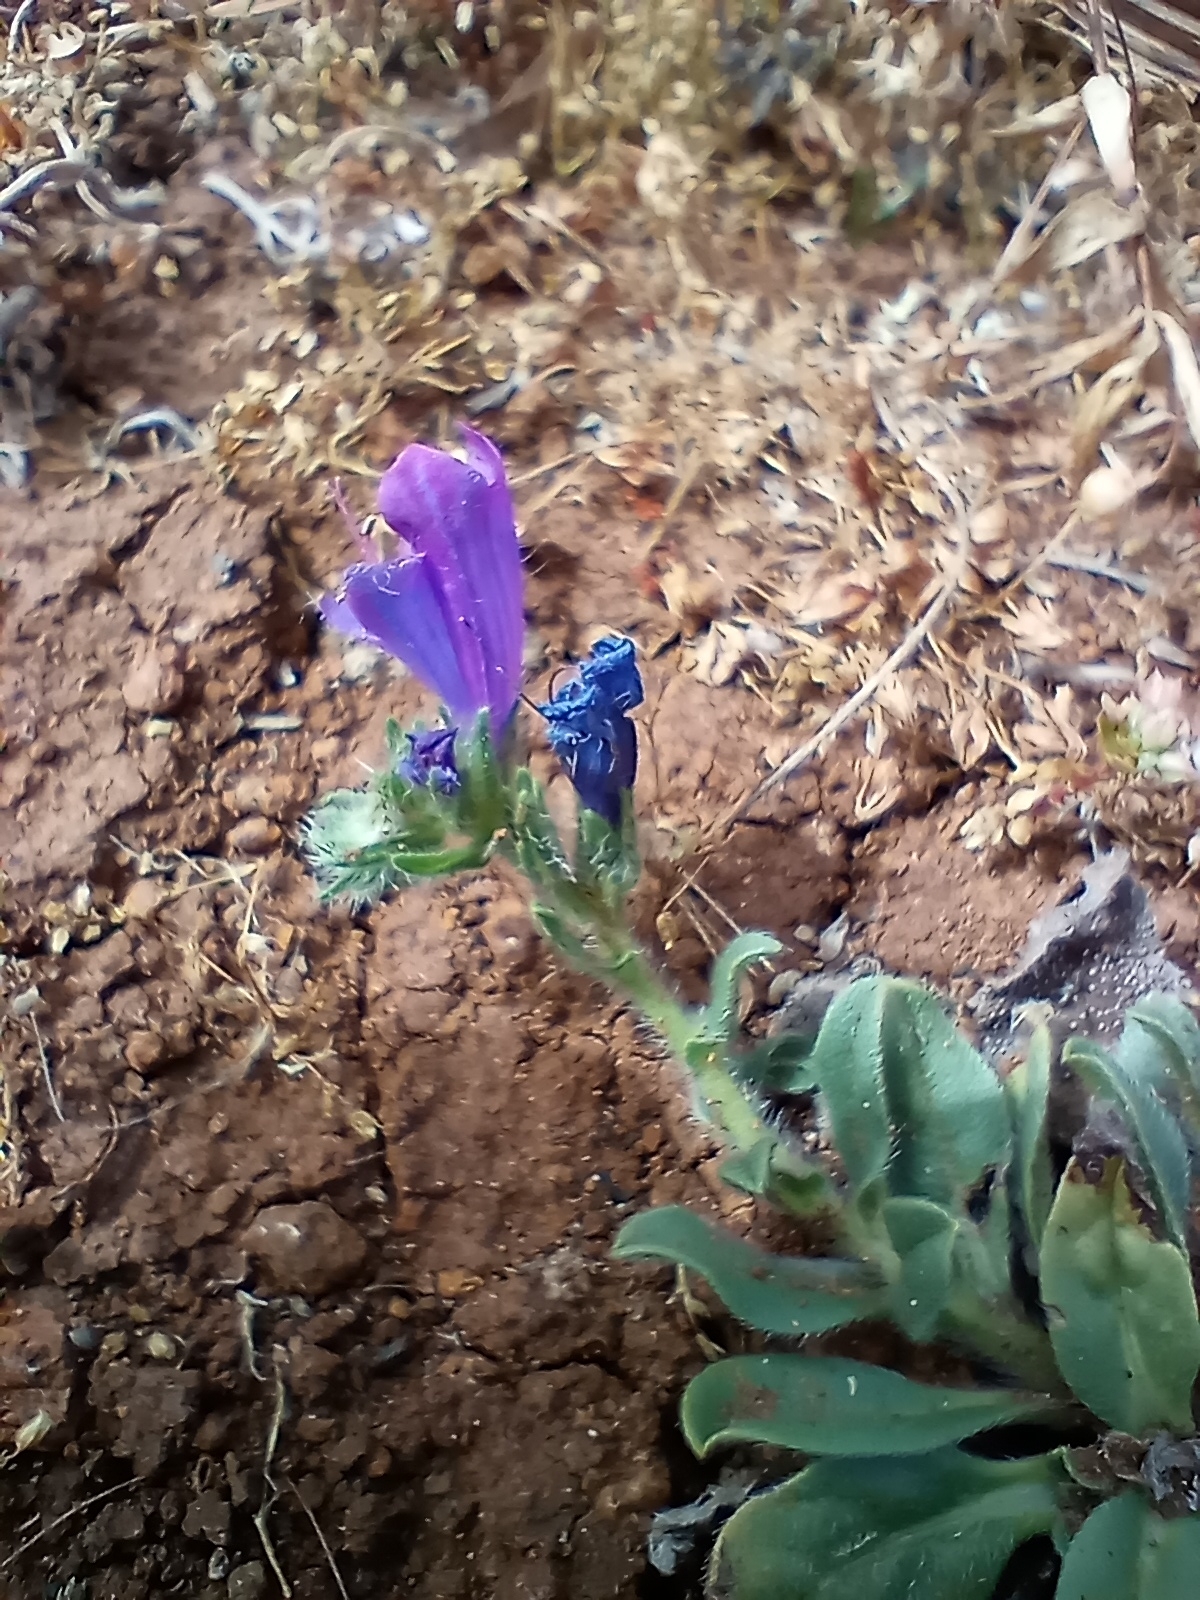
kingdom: Plantae
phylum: Tracheophyta
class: Magnoliopsida
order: Boraginales
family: Boraginaceae
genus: Echium
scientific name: Echium plantagineum
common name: Purple viper's-bugloss
